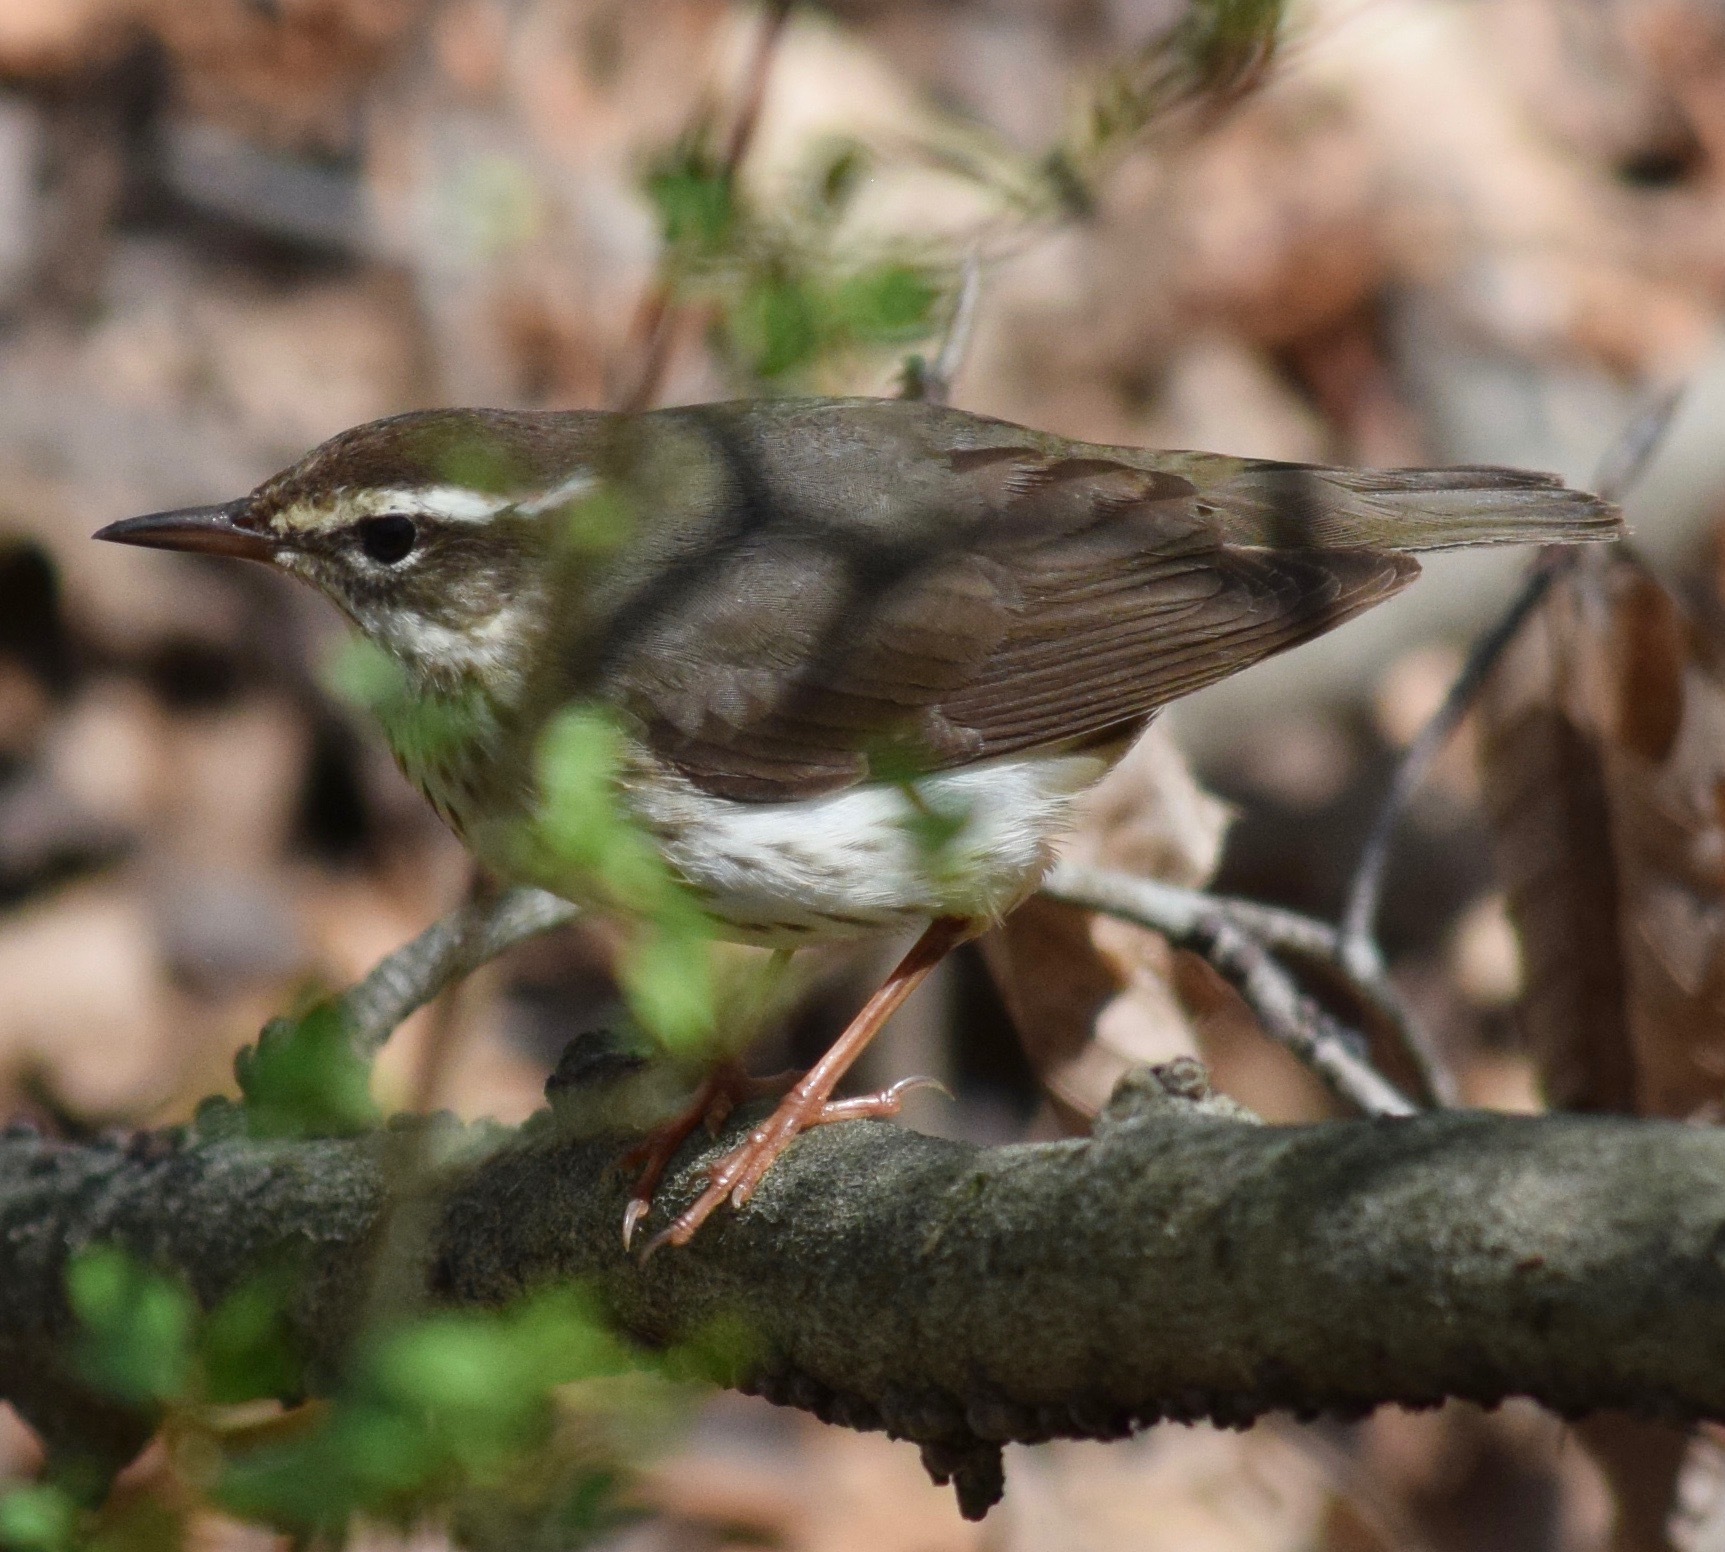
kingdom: Animalia
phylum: Chordata
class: Aves
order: Passeriformes
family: Parulidae
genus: Parkesia
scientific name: Parkesia motacilla
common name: Louisiana waterthrush
